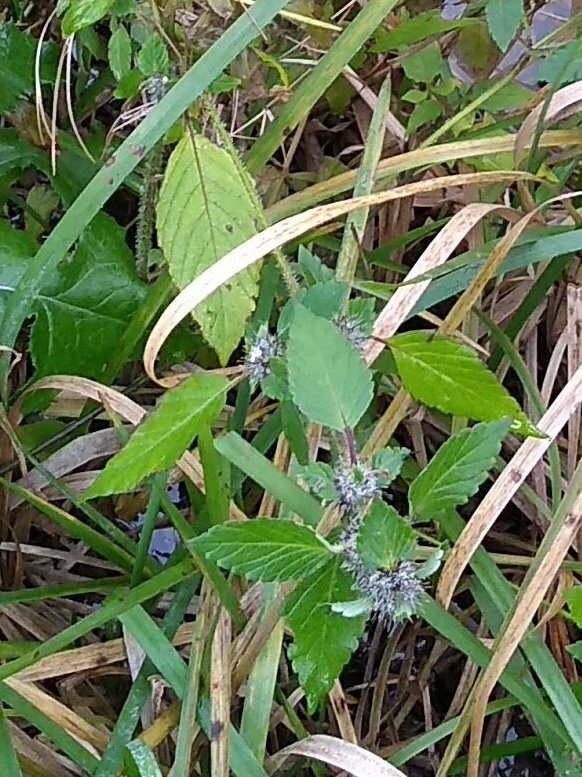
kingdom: Plantae
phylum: Tracheophyta
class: Magnoliopsida
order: Lamiales
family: Lamiaceae
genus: Lycopus
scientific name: Lycopus europaeus
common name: European bugleweed
